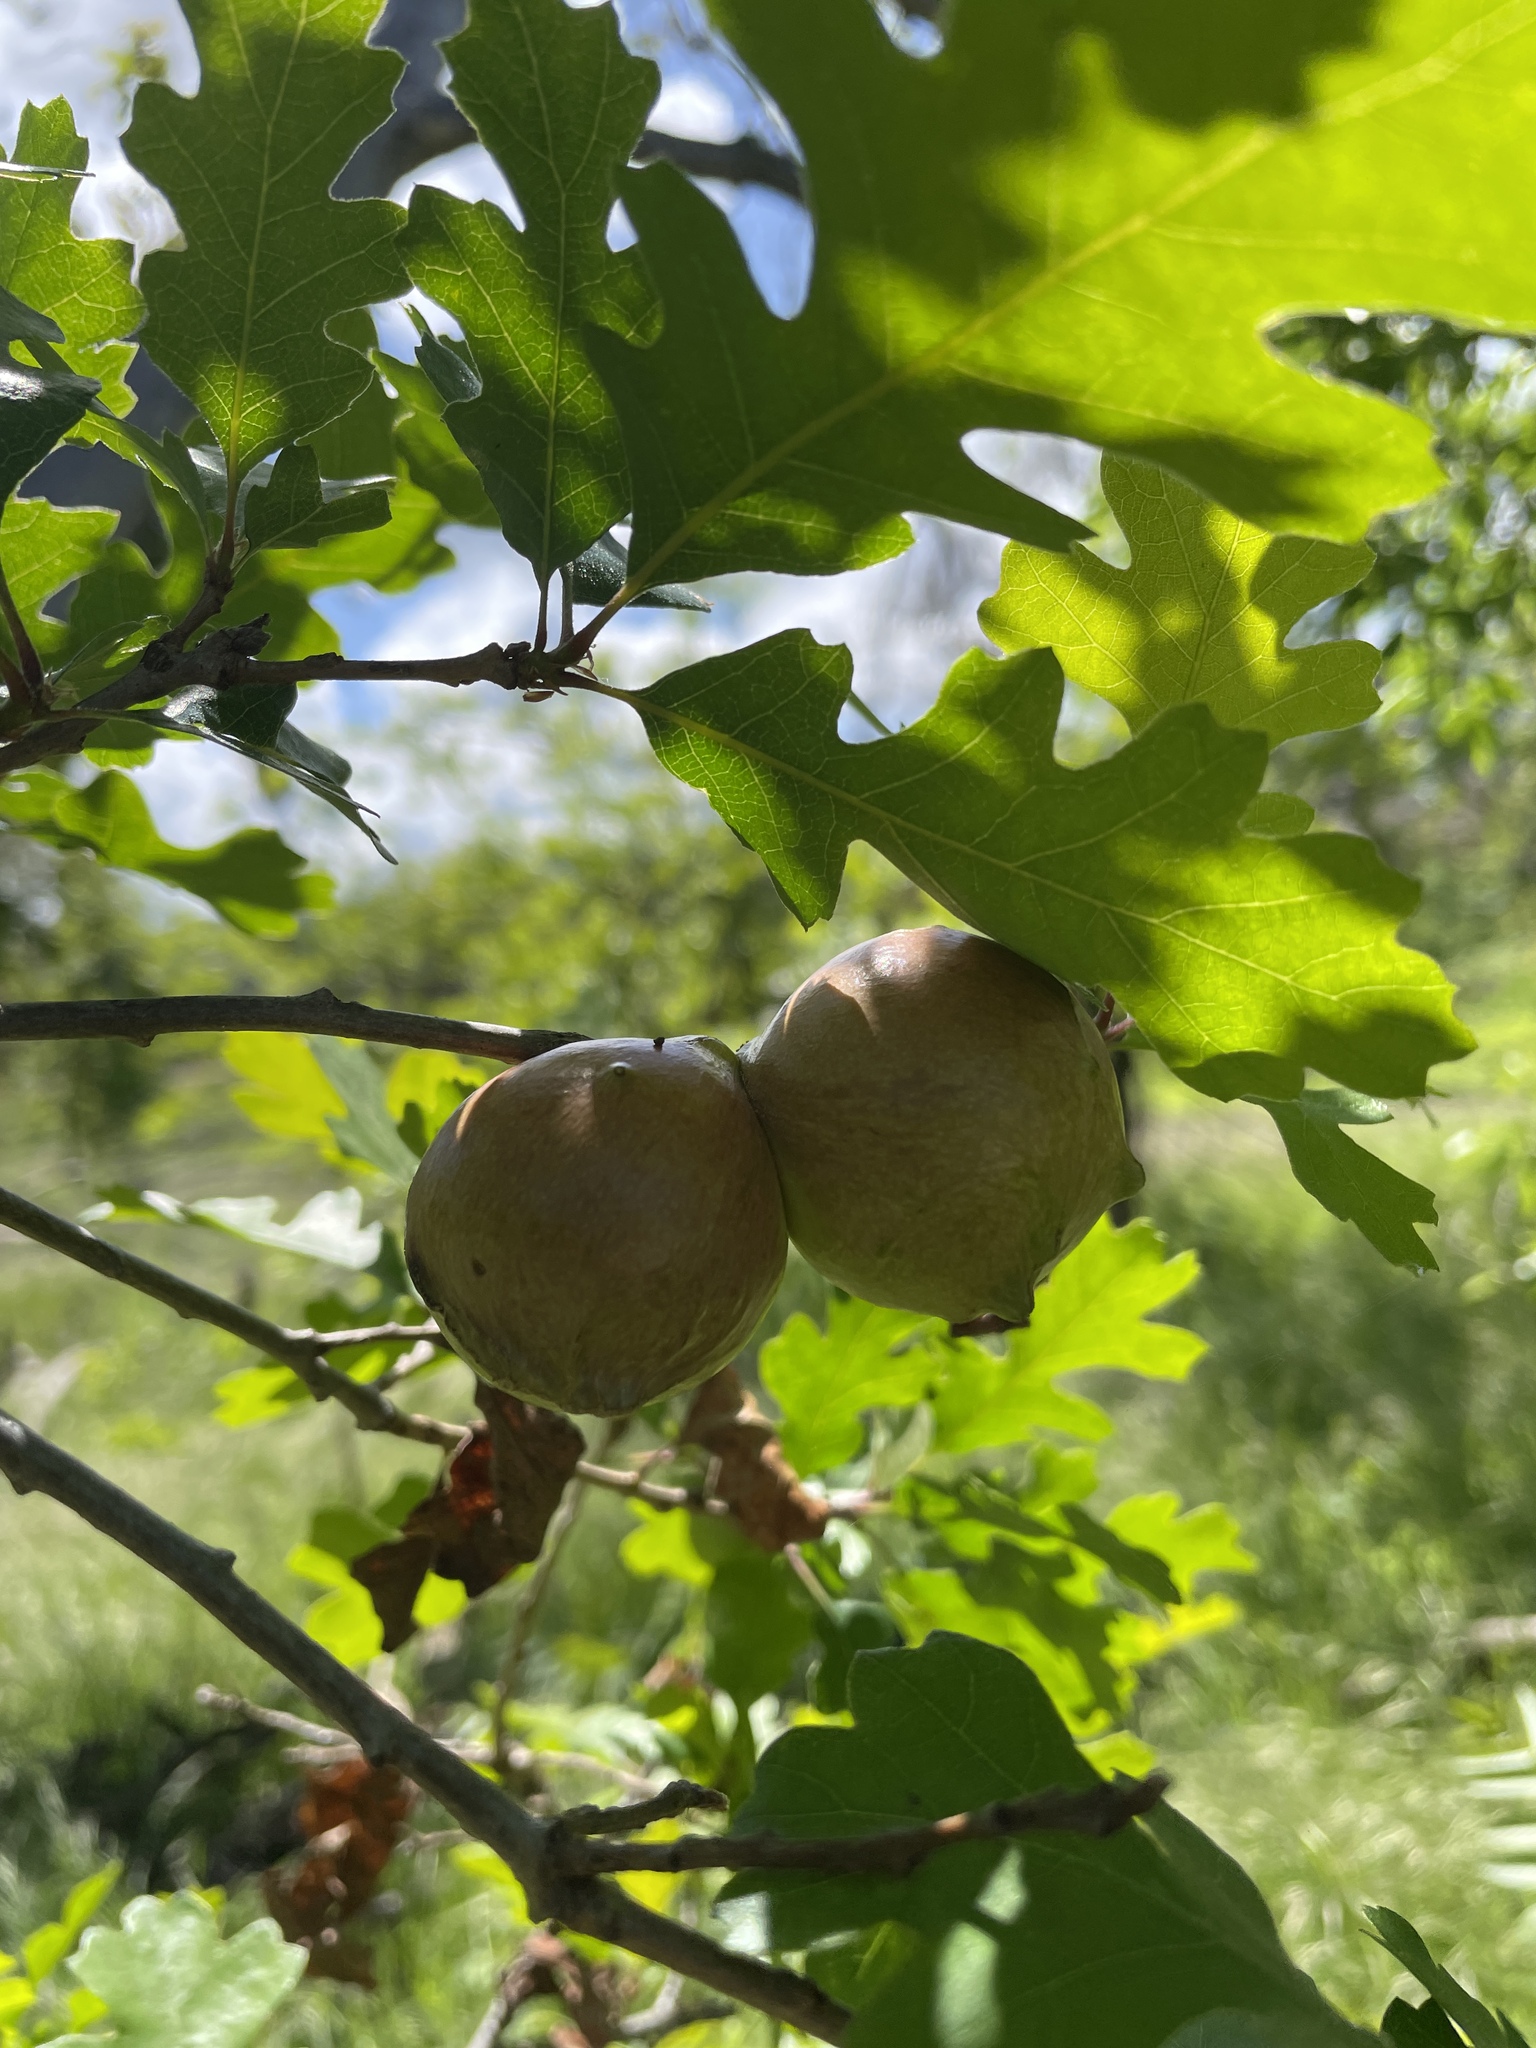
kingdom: Animalia
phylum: Arthropoda
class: Insecta
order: Hymenoptera
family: Cynipidae
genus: Andricus
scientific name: Andricus quercuscalifornicus
